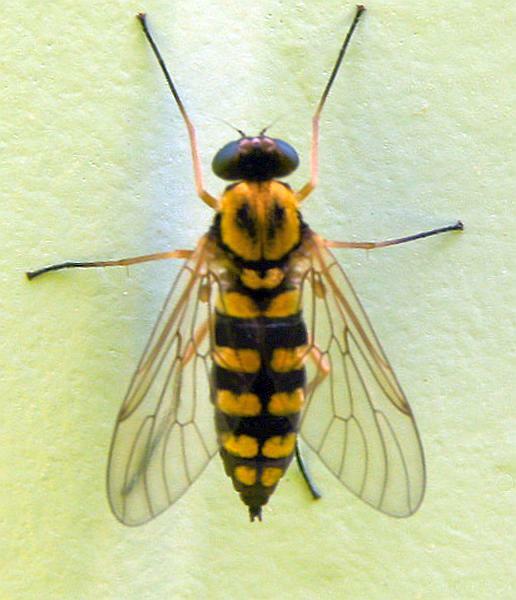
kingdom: Animalia
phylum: Arthropoda
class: Insecta
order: Diptera
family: Rhagionidae
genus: Chrysopilus
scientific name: Chrysopilus ornatus
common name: Ornate snipe fly
